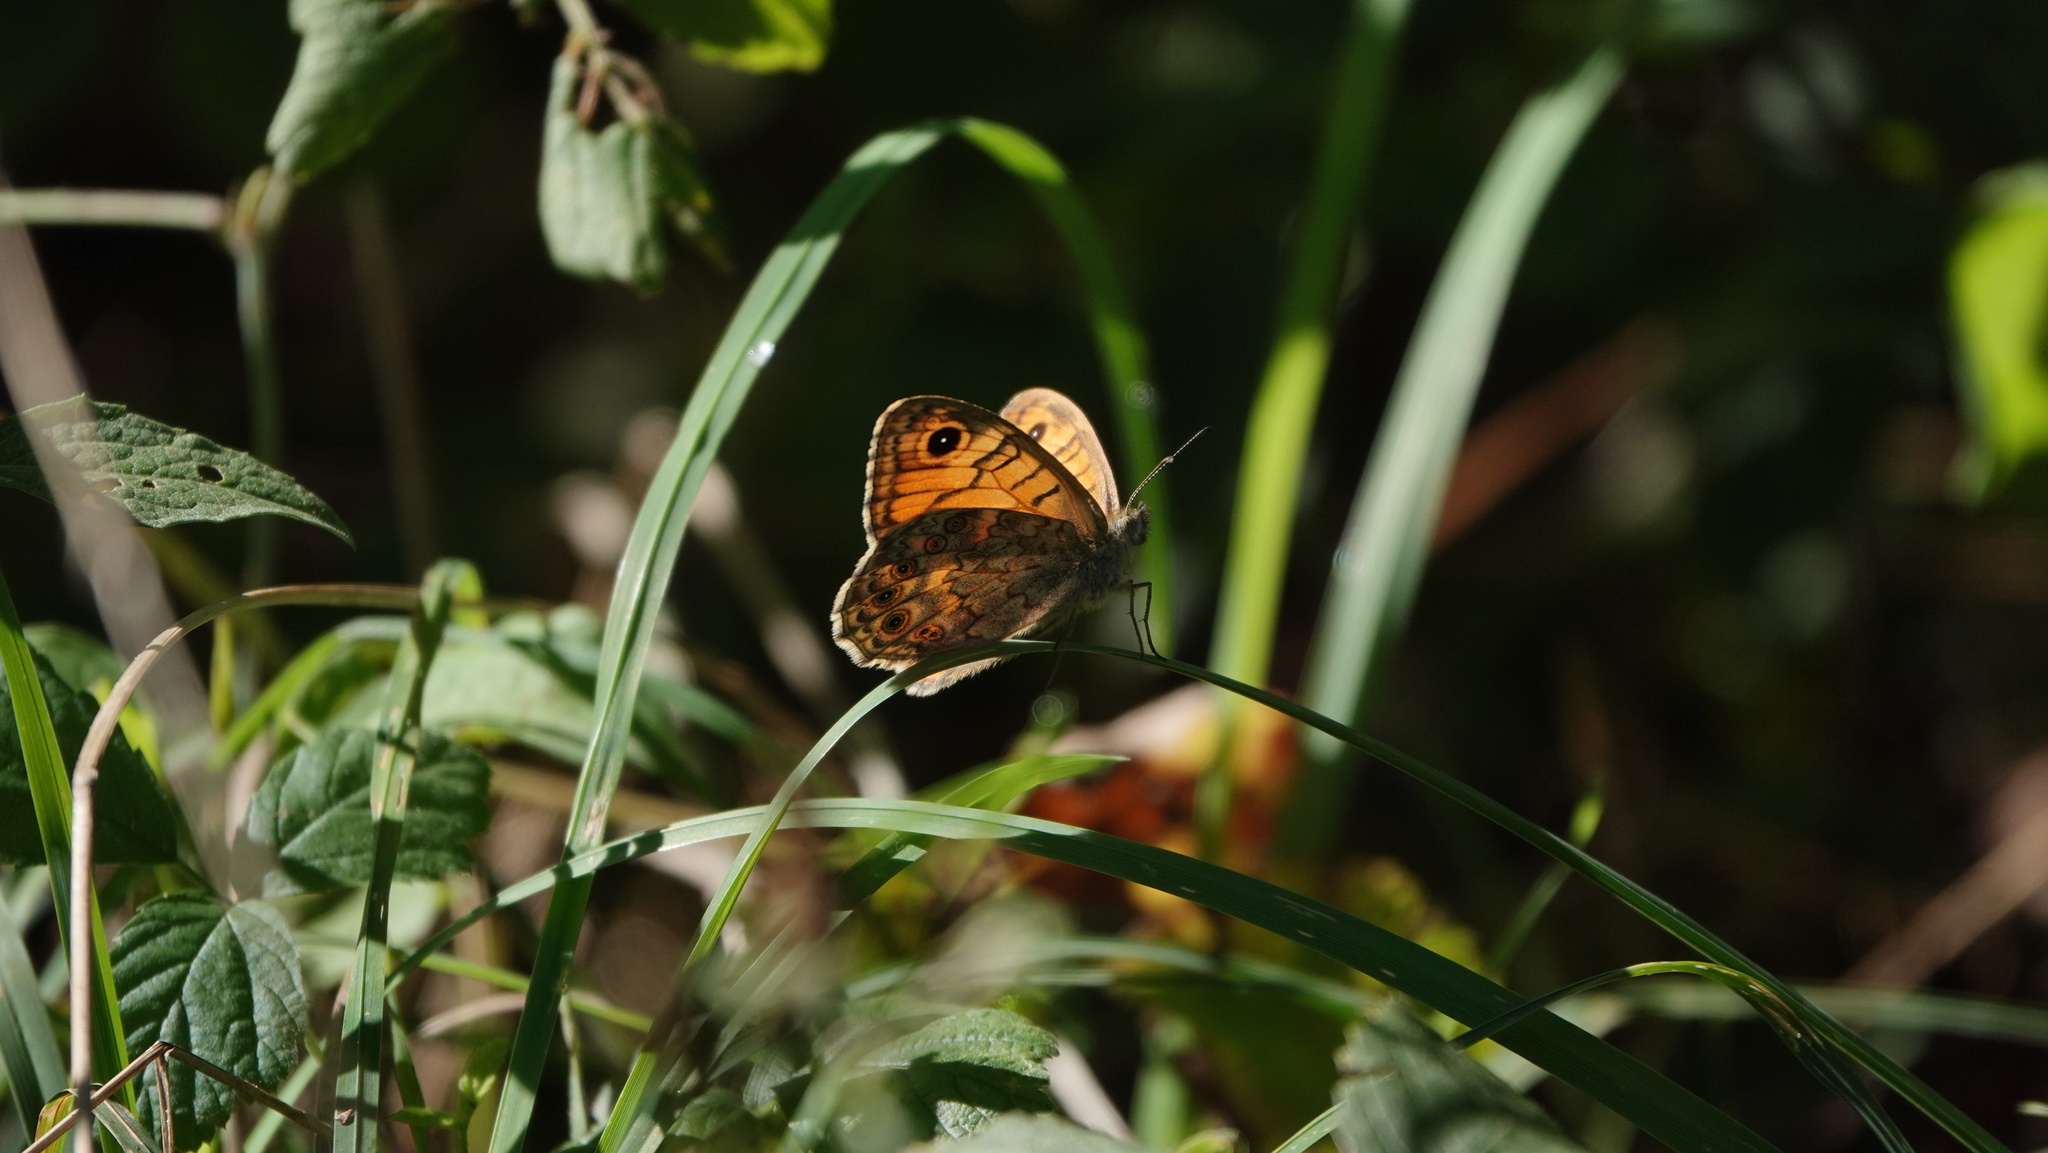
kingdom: Animalia
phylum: Arthropoda
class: Insecta
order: Lepidoptera
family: Nymphalidae
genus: Pararge
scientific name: Pararge Lasiommata megera
